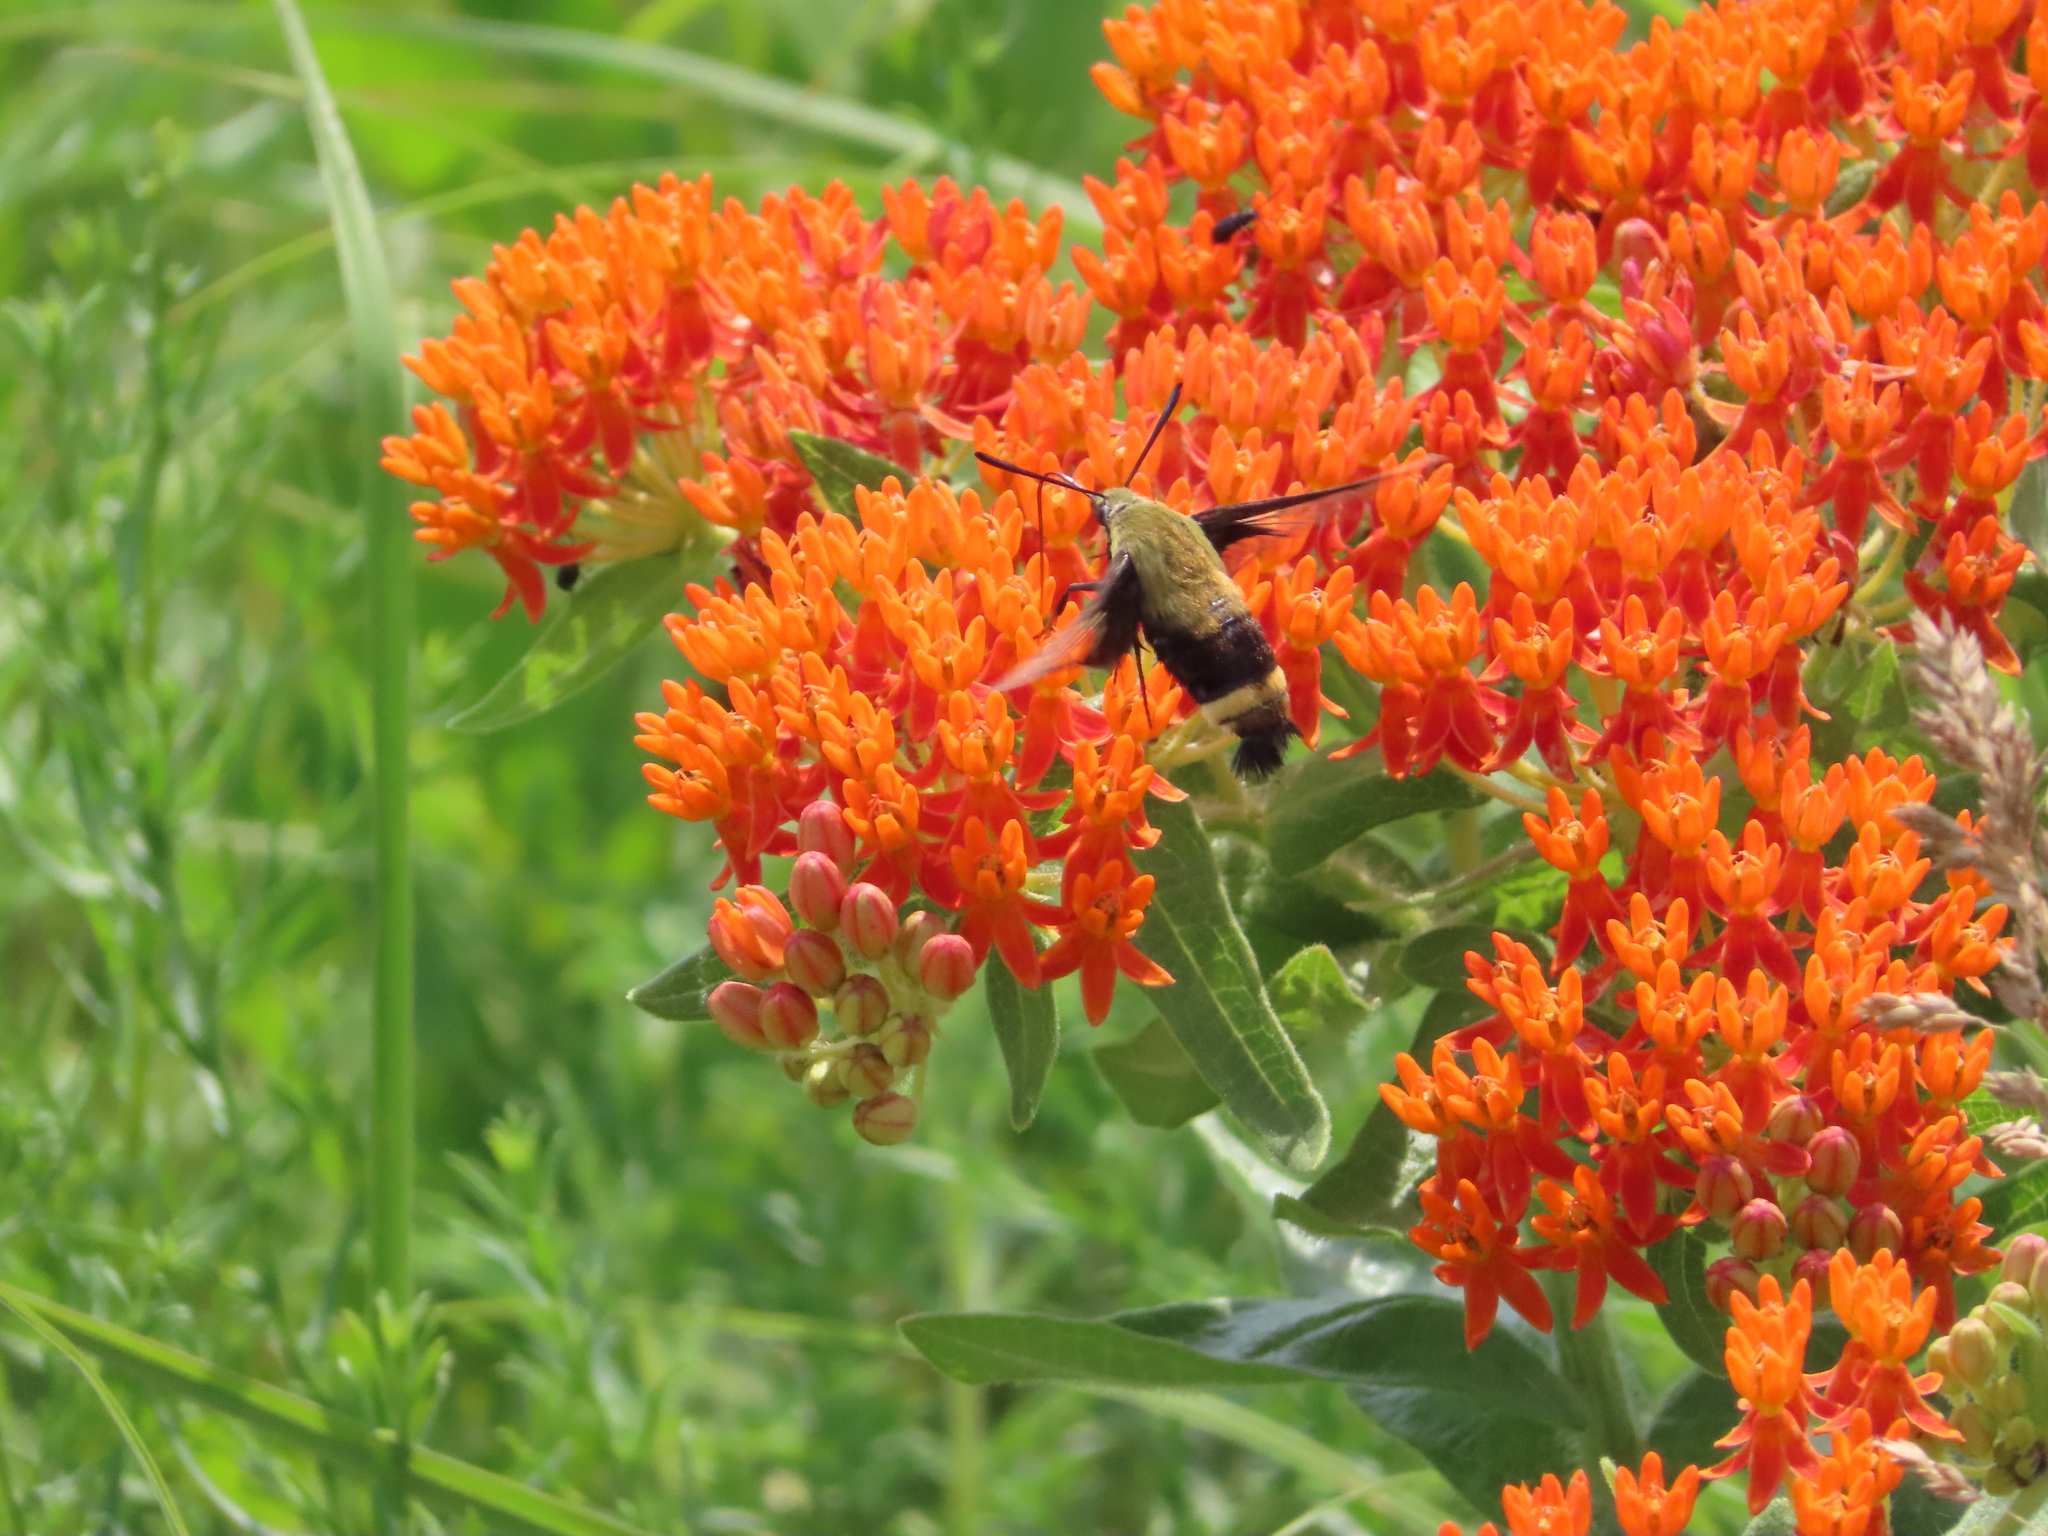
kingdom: Animalia
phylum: Arthropoda
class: Insecta
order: Lepidoptera
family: Sphingidae
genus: Hemaris
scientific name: Hemaris diffinis
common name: Bumblebee moth
